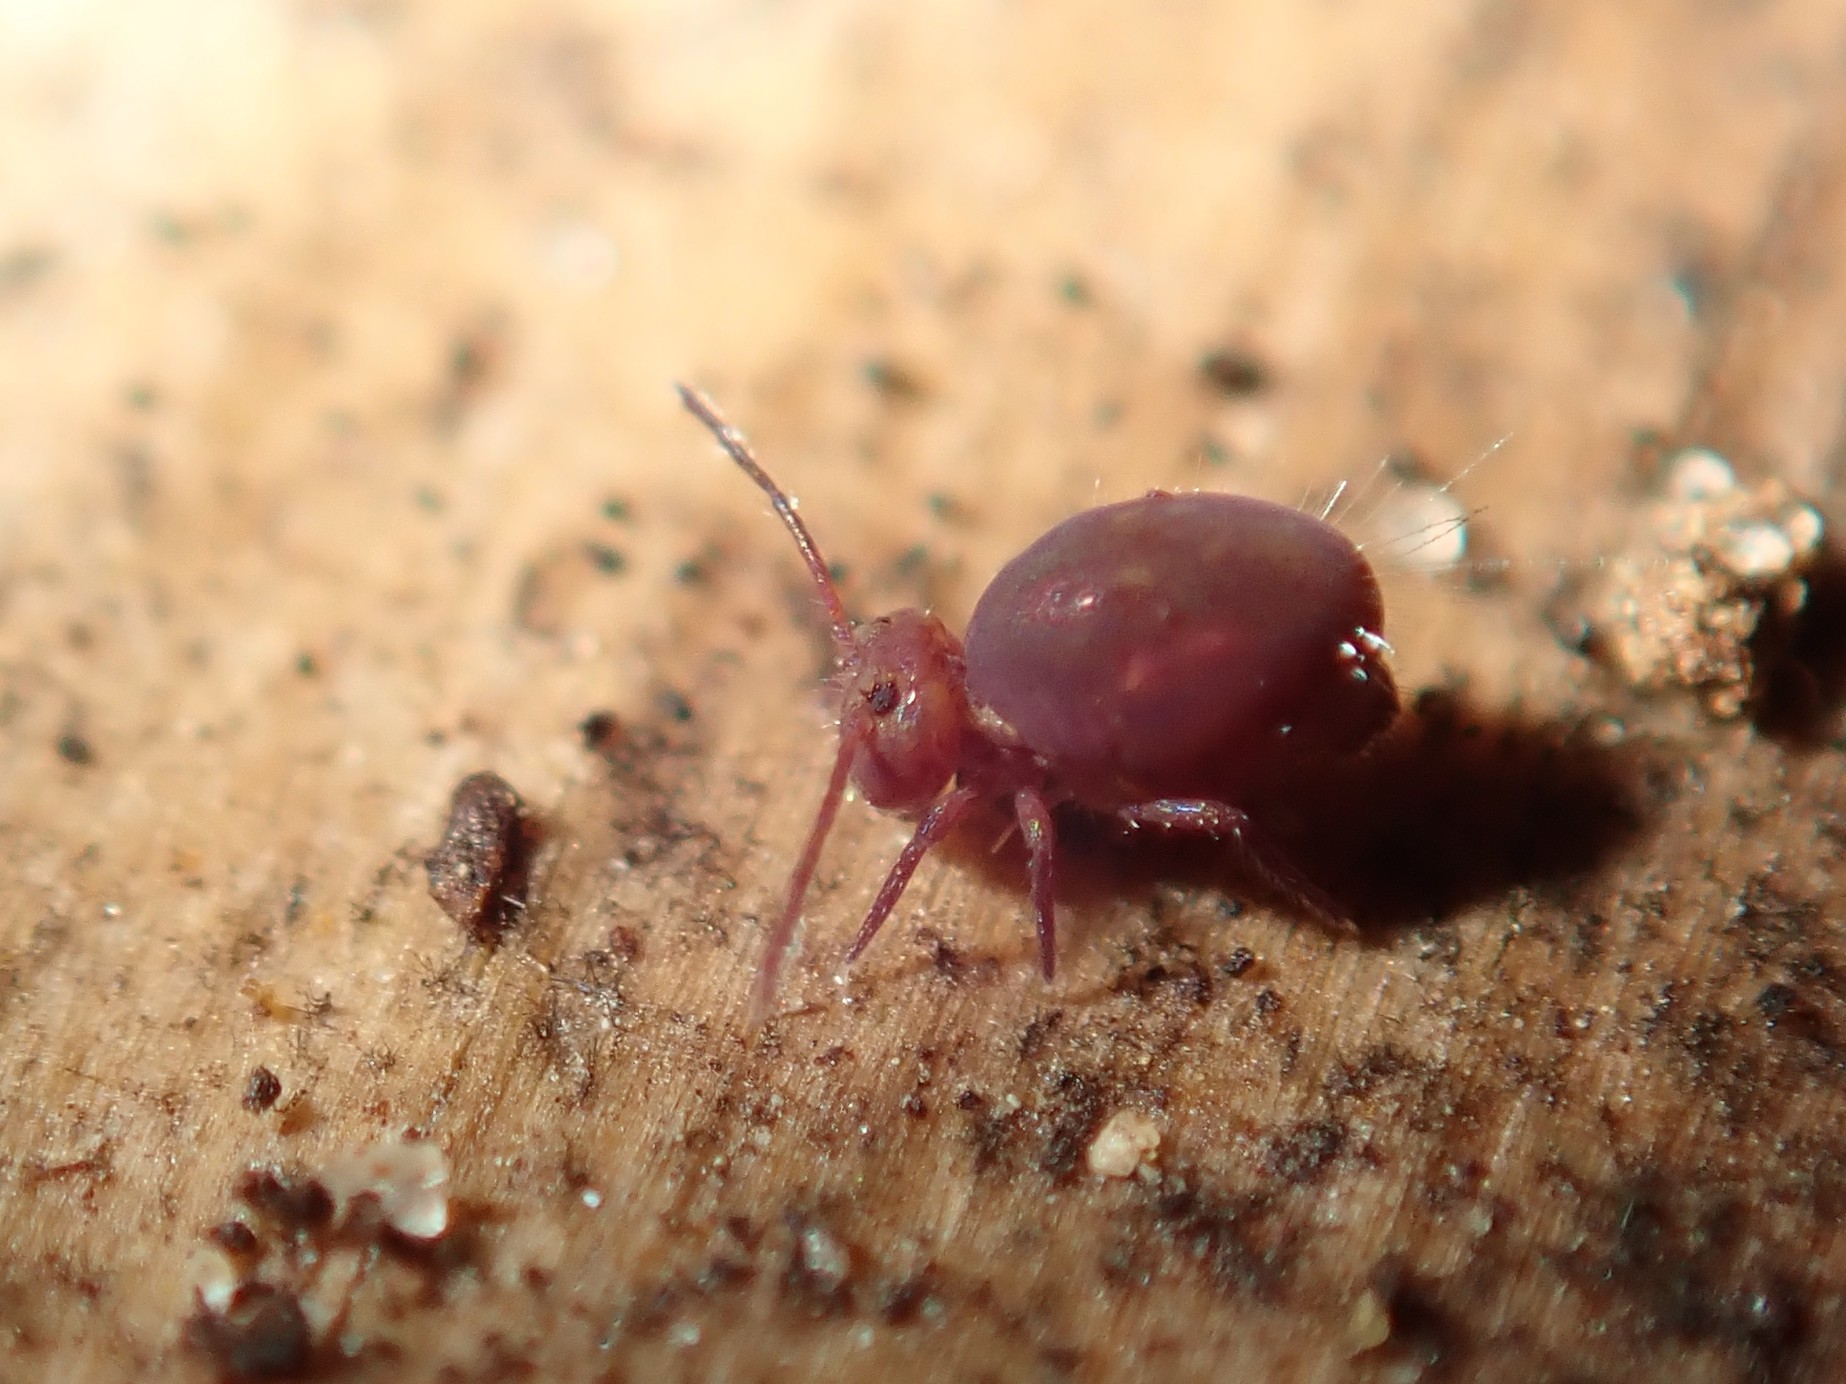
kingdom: Animalia
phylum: Arthropoda
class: Collembola
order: Symphypleona
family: Dicyrtomidae
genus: Dicyrtoma
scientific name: Dicyrtoma fusca
